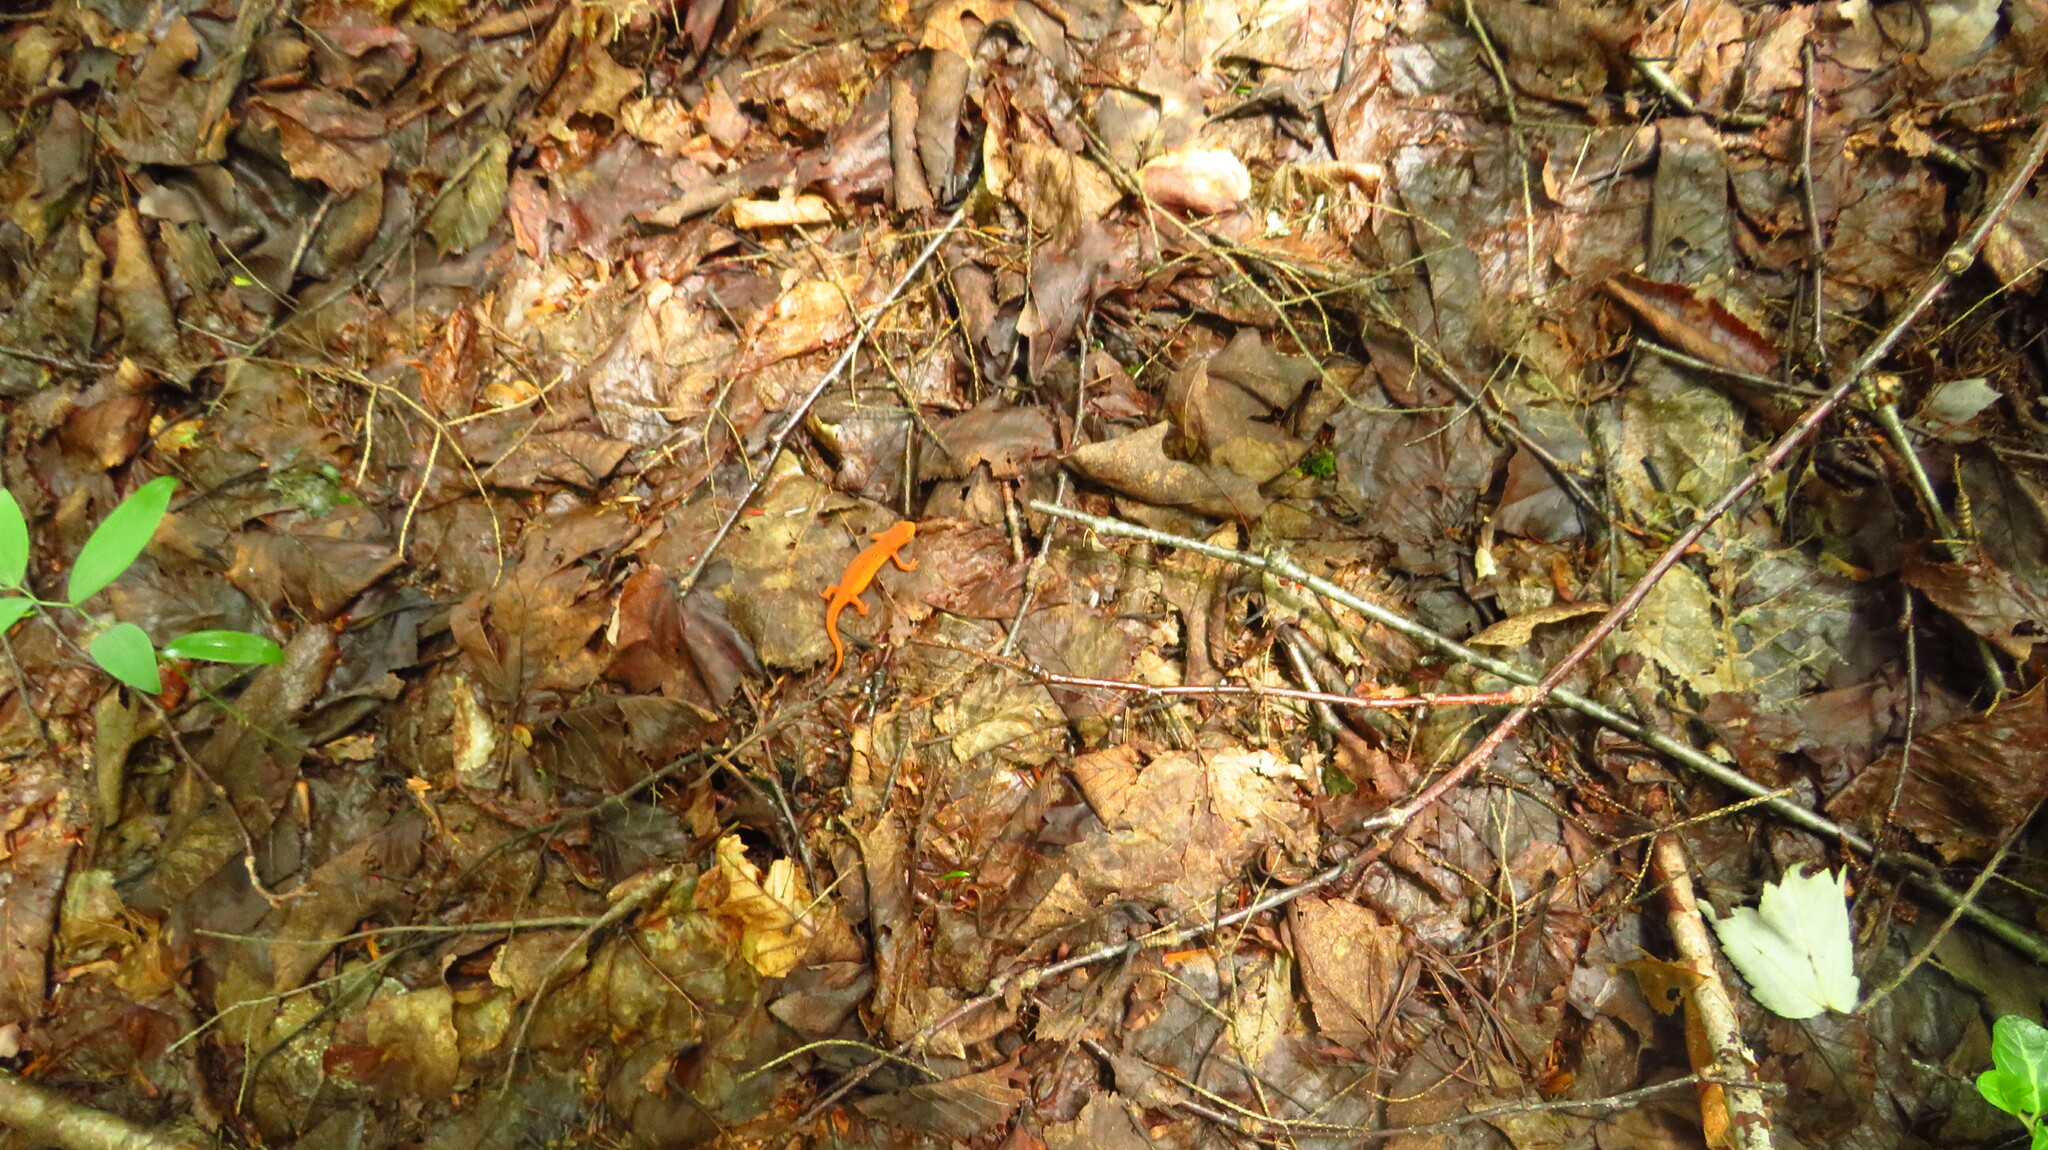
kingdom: Animalia
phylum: Chordata
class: Amphibia
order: Caudata
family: Salamandridae
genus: Notophthalmus
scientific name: Notophthalmus viridescens
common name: Eastern newt
